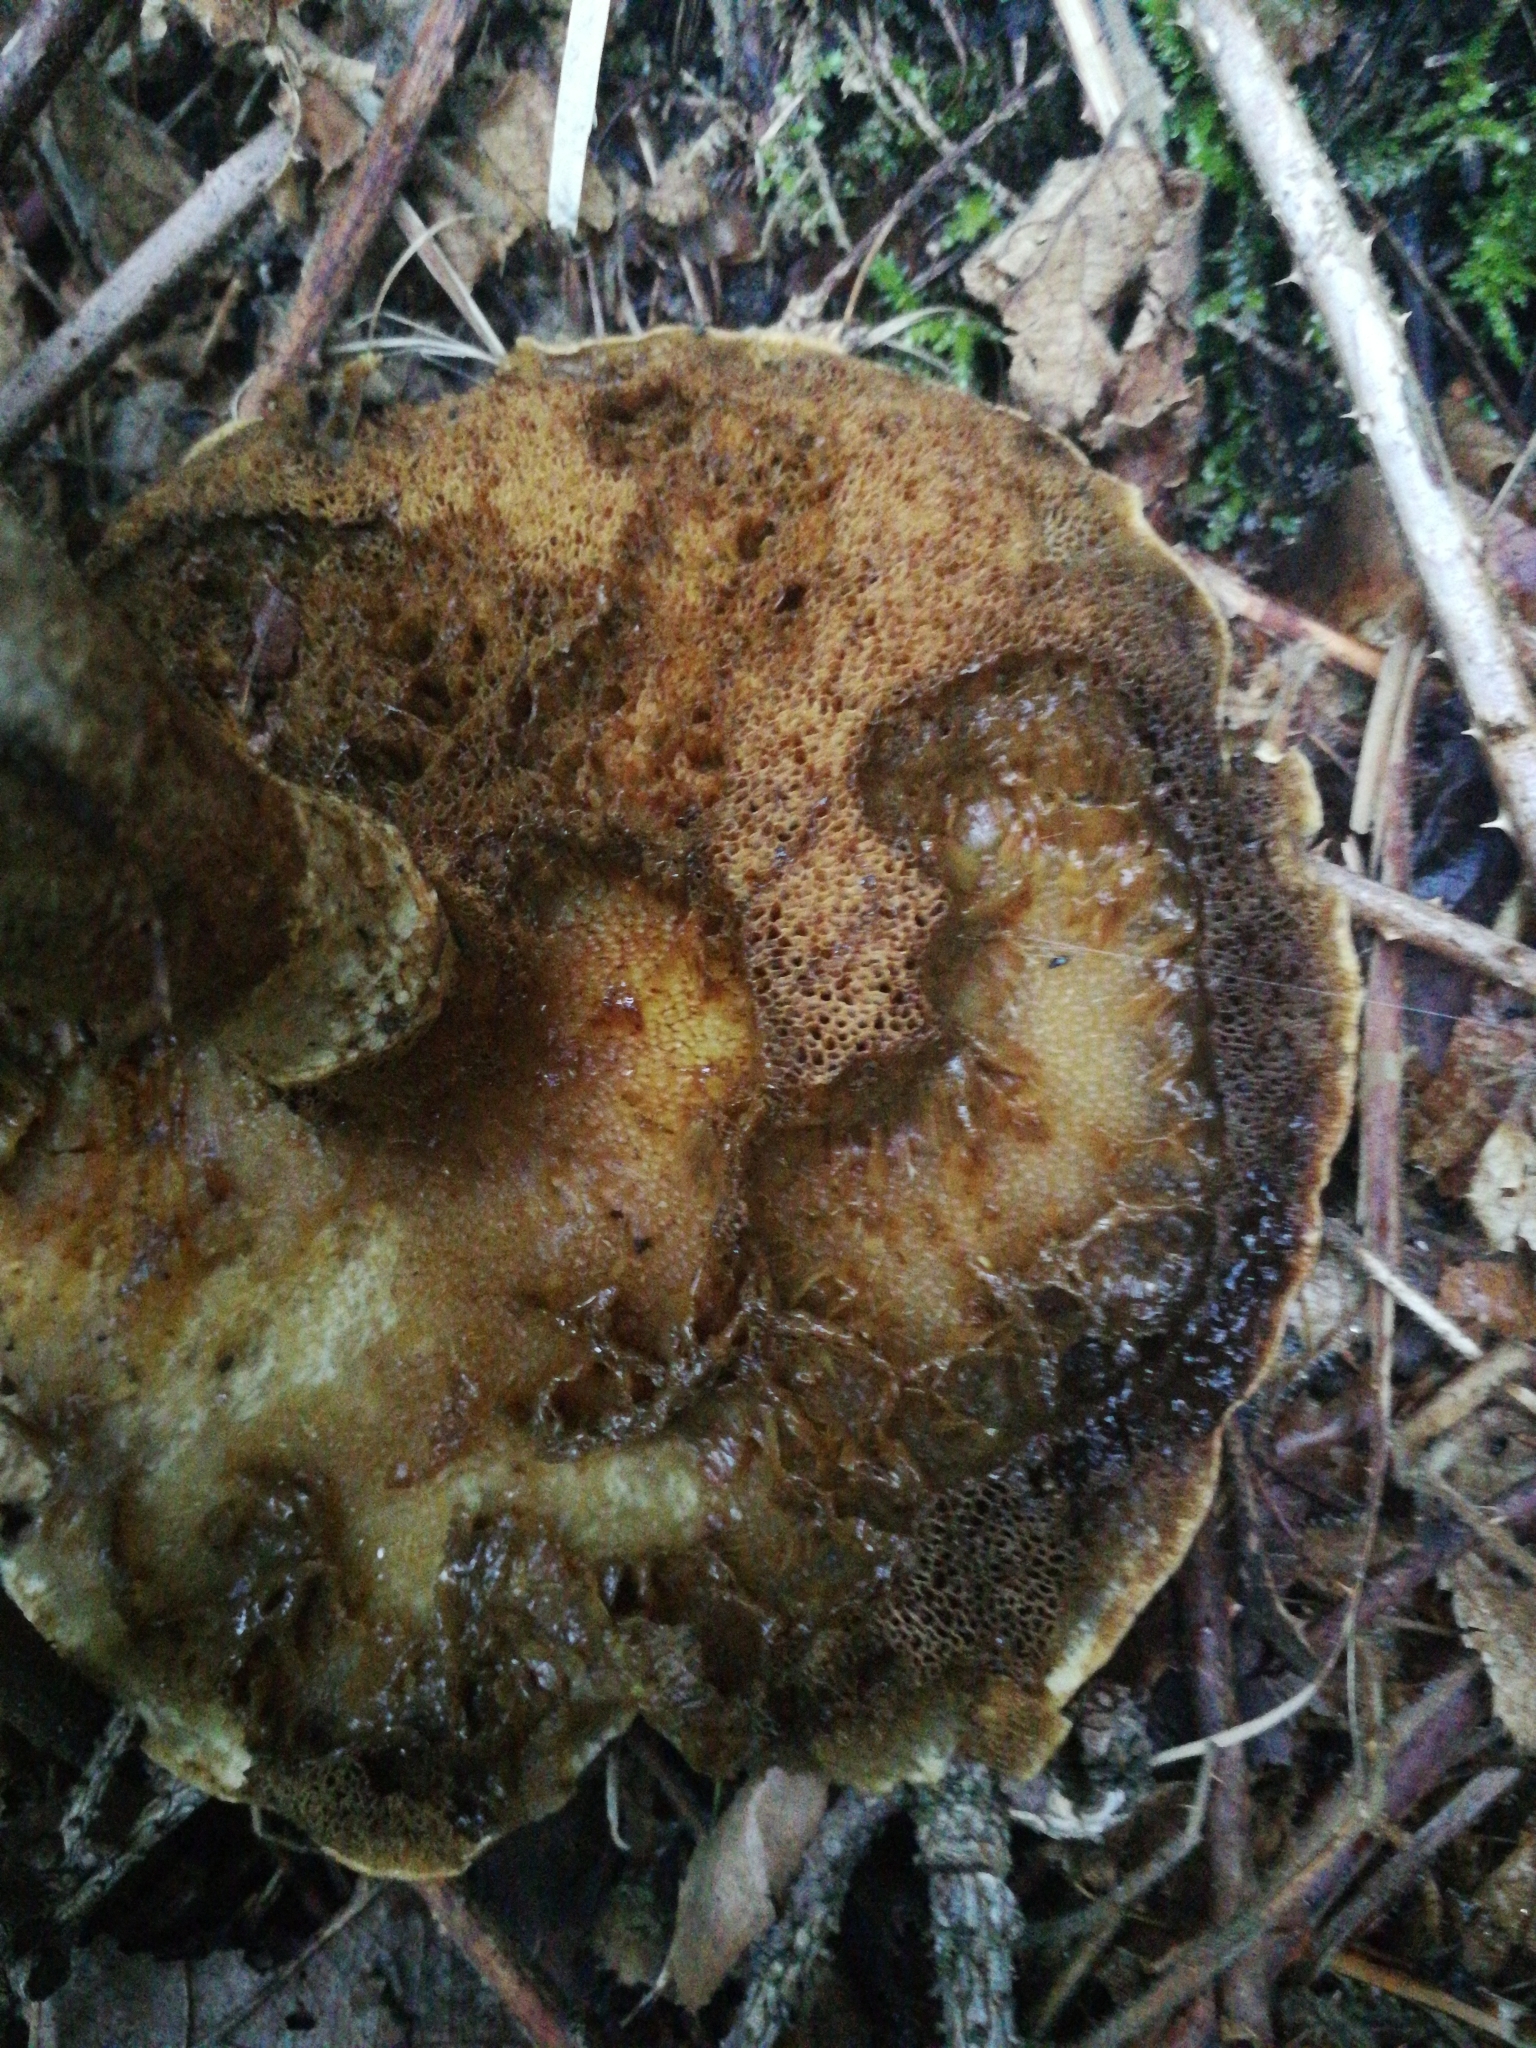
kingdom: Fungi
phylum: Basidiomycota
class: Agaricomycetes
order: Boletales
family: Suillaceae
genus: Suillus
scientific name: Suillus grevillei
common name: Larch bolete
